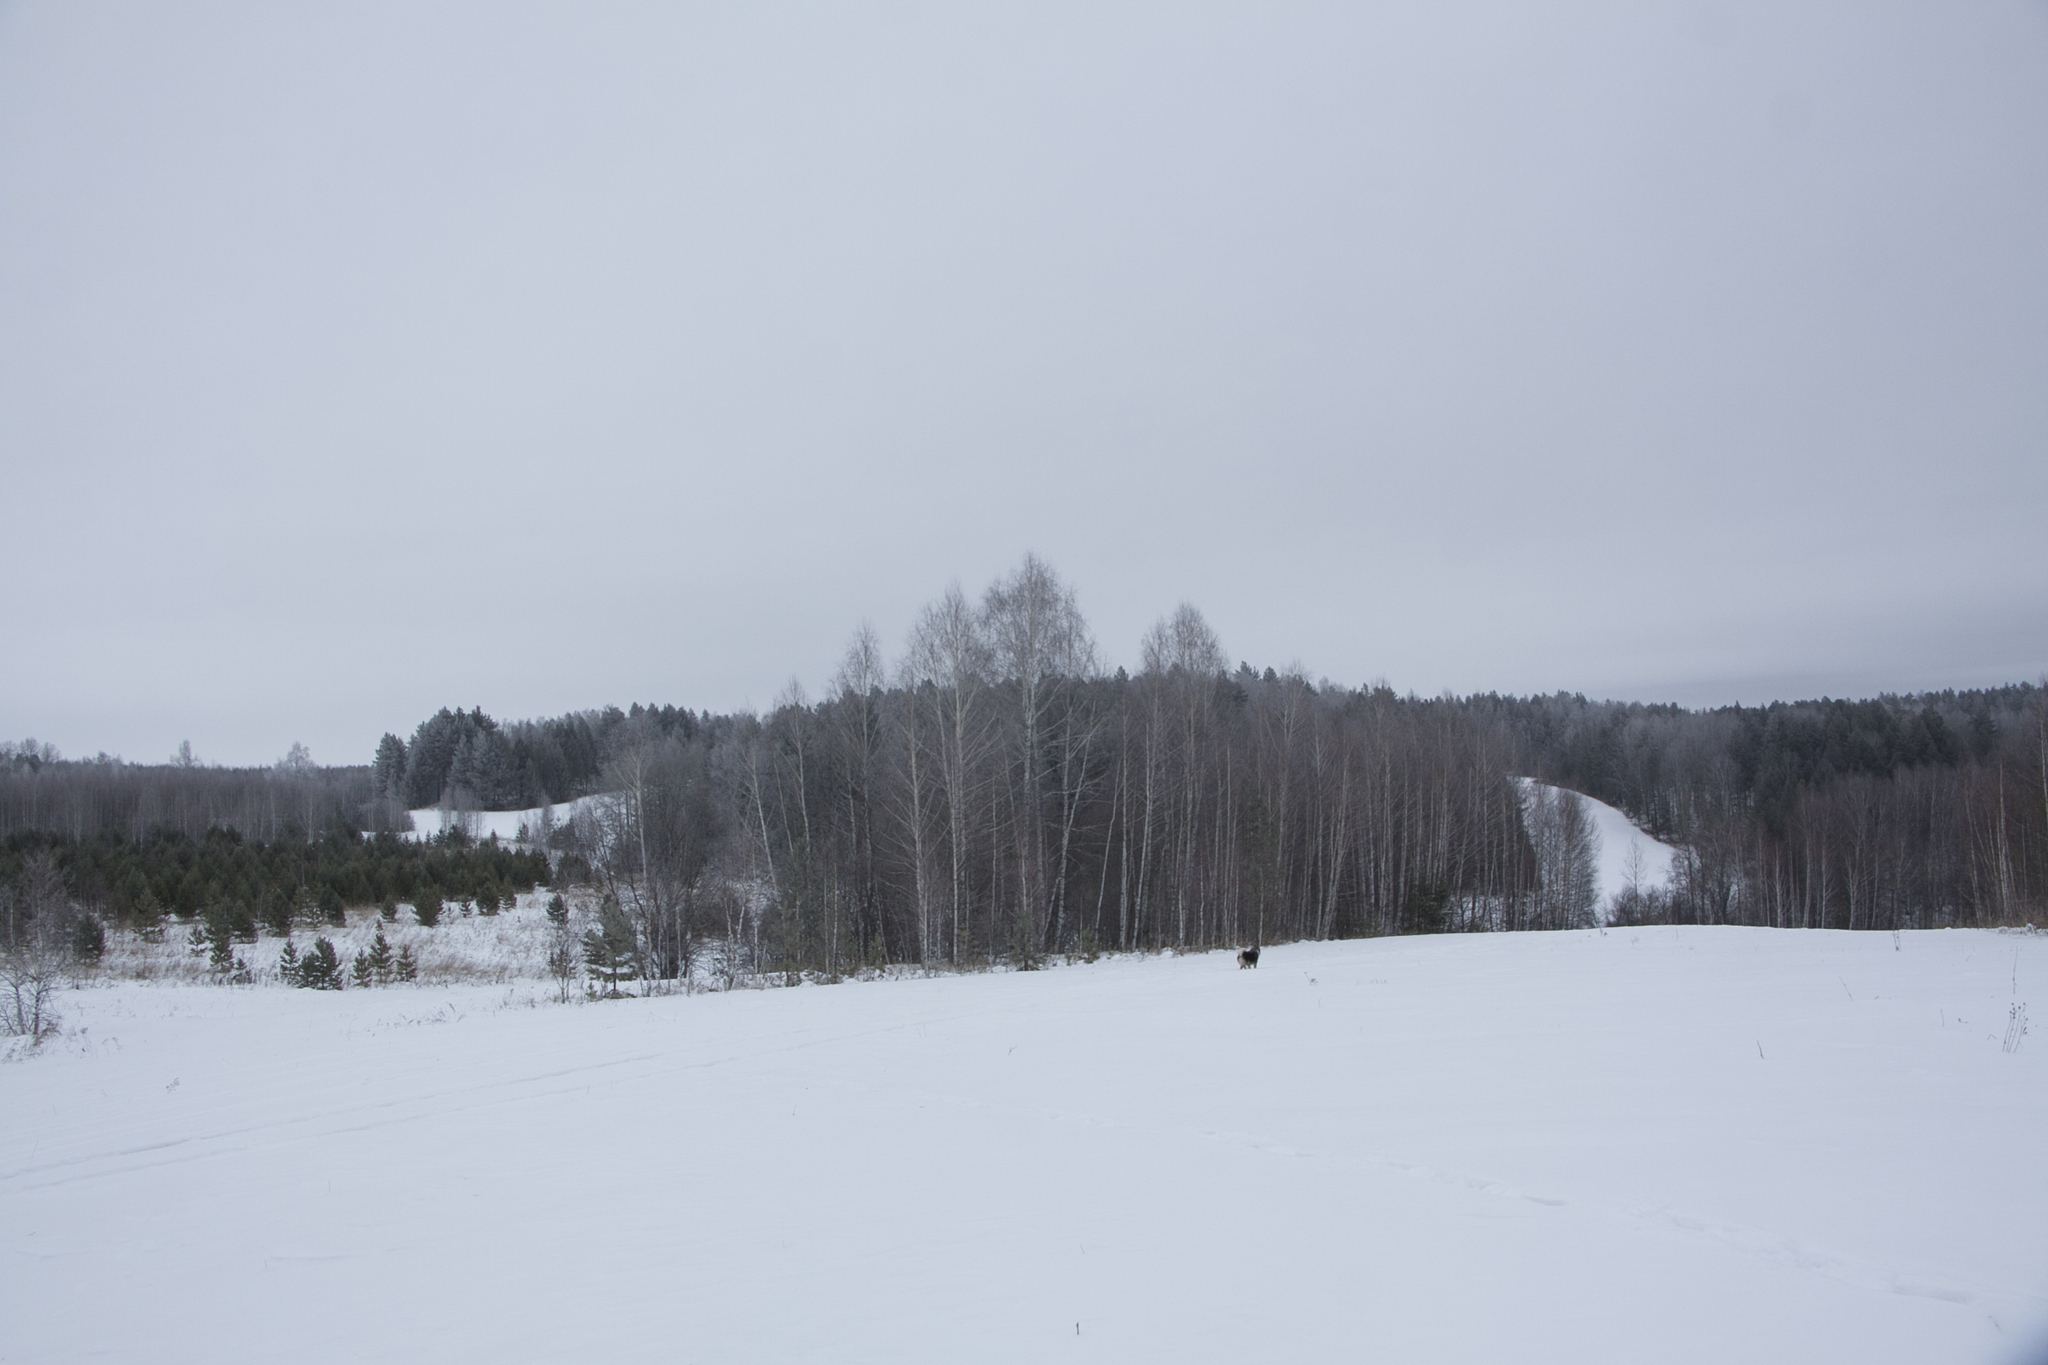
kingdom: Plantae
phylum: Tracheophyta
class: Magnoliopsida
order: Fagales
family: Betulaceae
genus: Betula
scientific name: Betula pendula
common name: Silver birch
